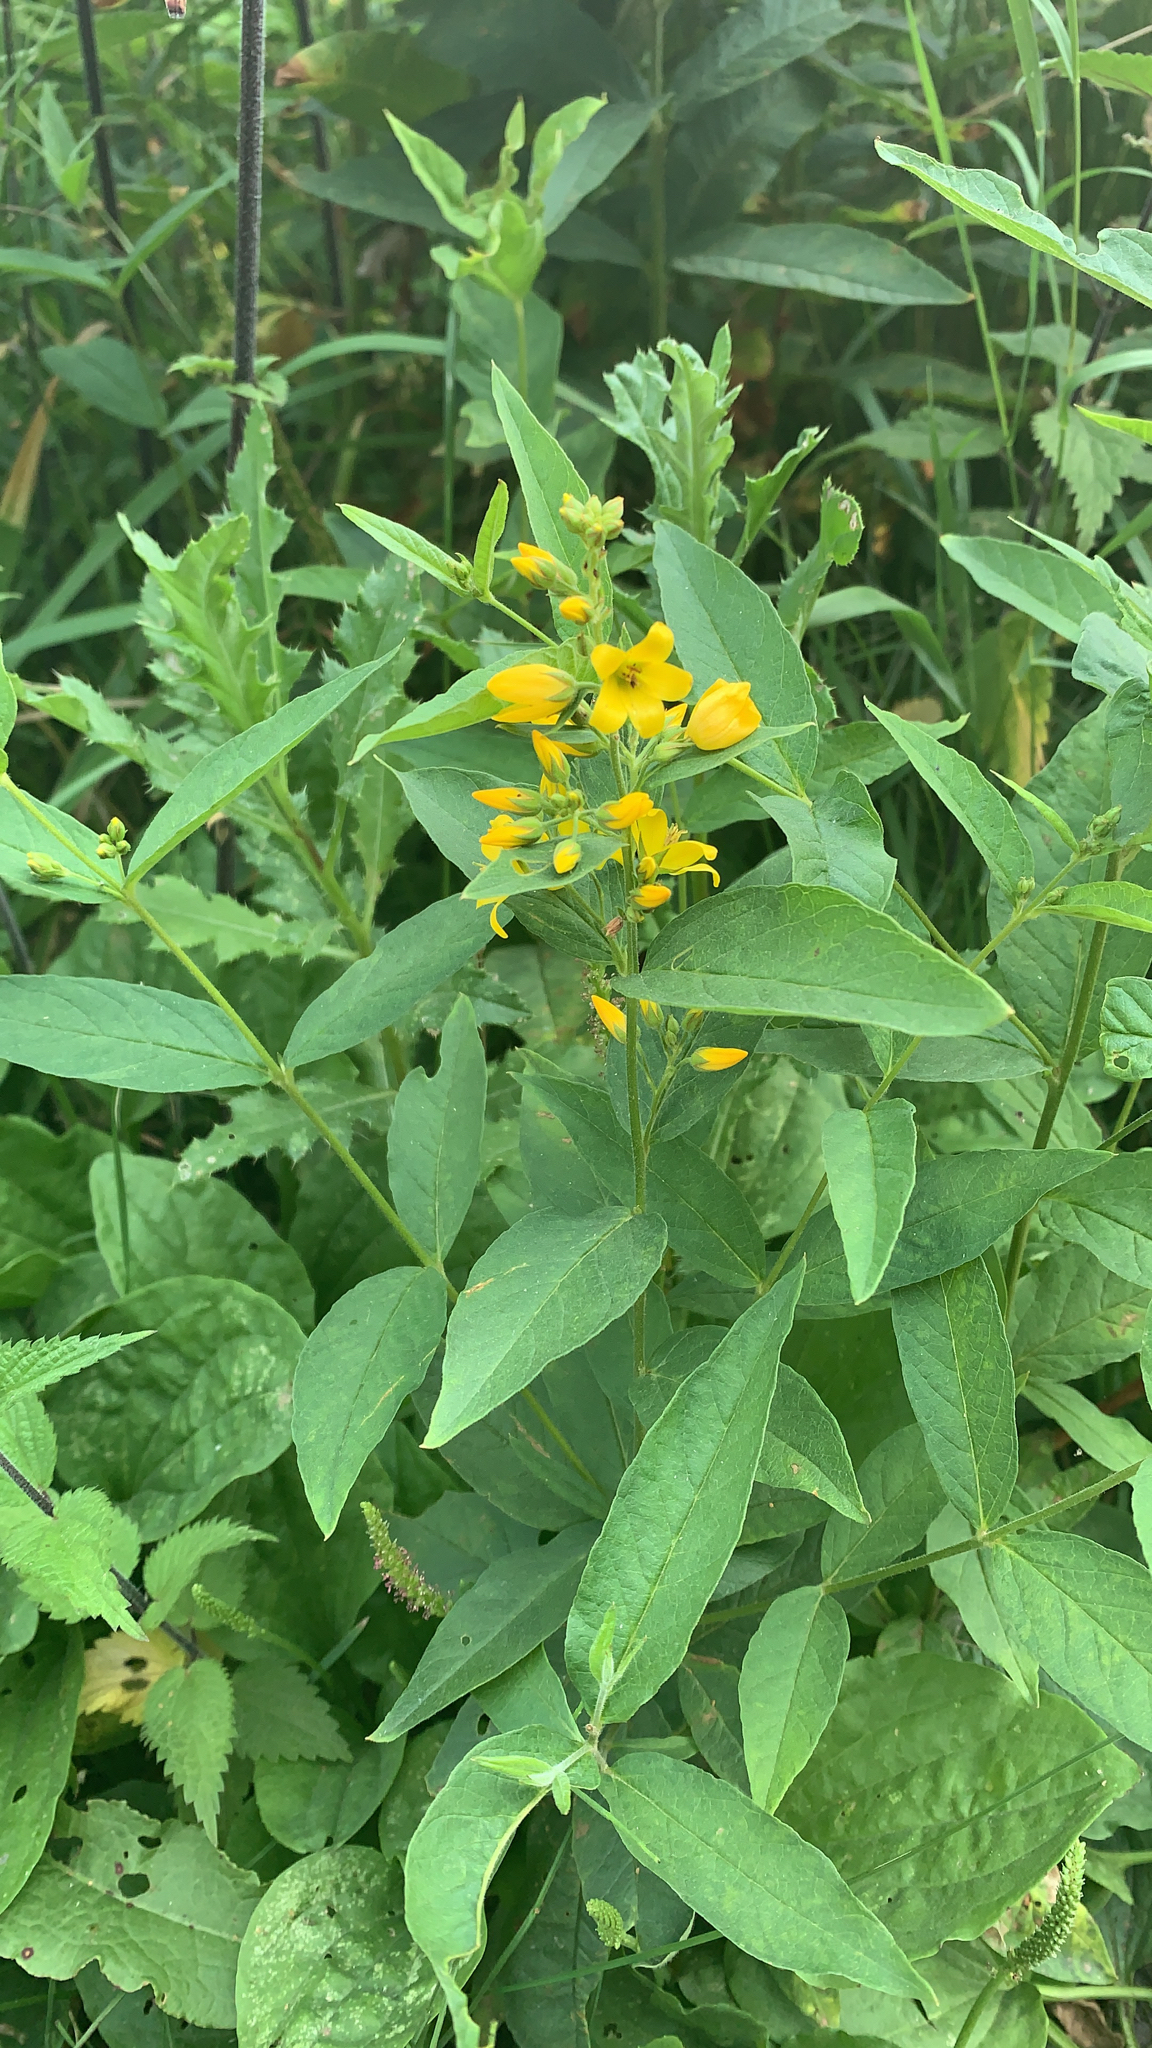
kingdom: Plantae
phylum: Tracheophyta
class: Magnoliopsida
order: Ericales
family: Primulaceae
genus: Lysimachia
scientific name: Lysimachia vulgaris
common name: Yellow loosestrife
